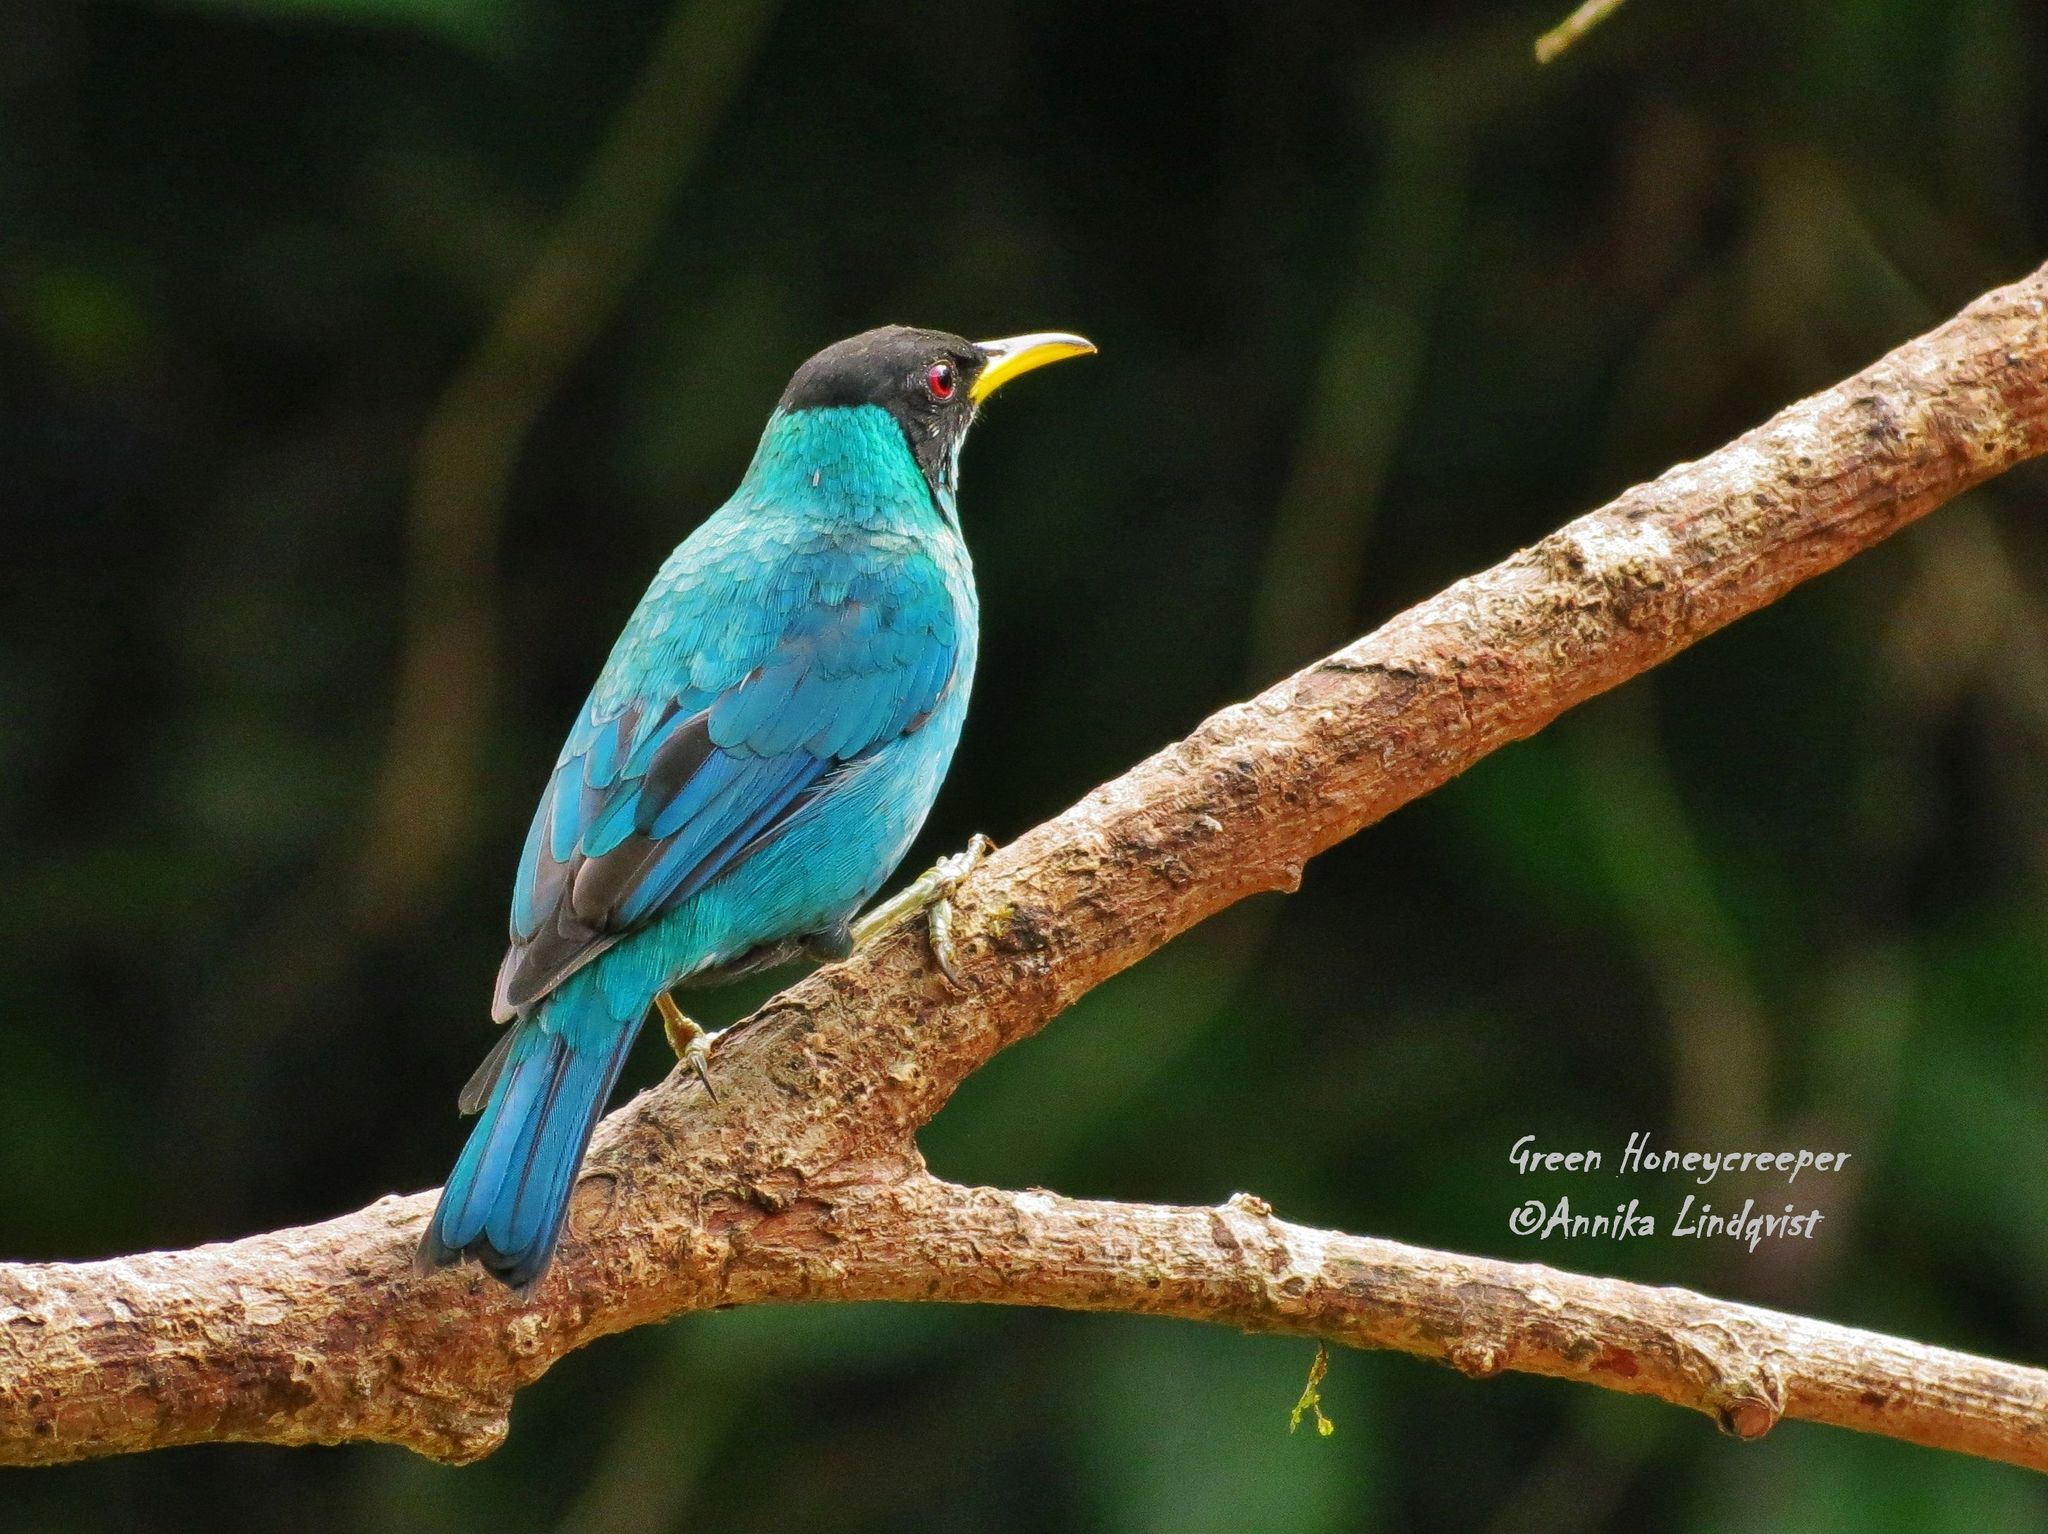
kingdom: Animalia
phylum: Chordata
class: Aves
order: Passeriformes
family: Thraupidae
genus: Chlorophanes
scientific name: Chlorophanes spiza
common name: Green honeycreeper
